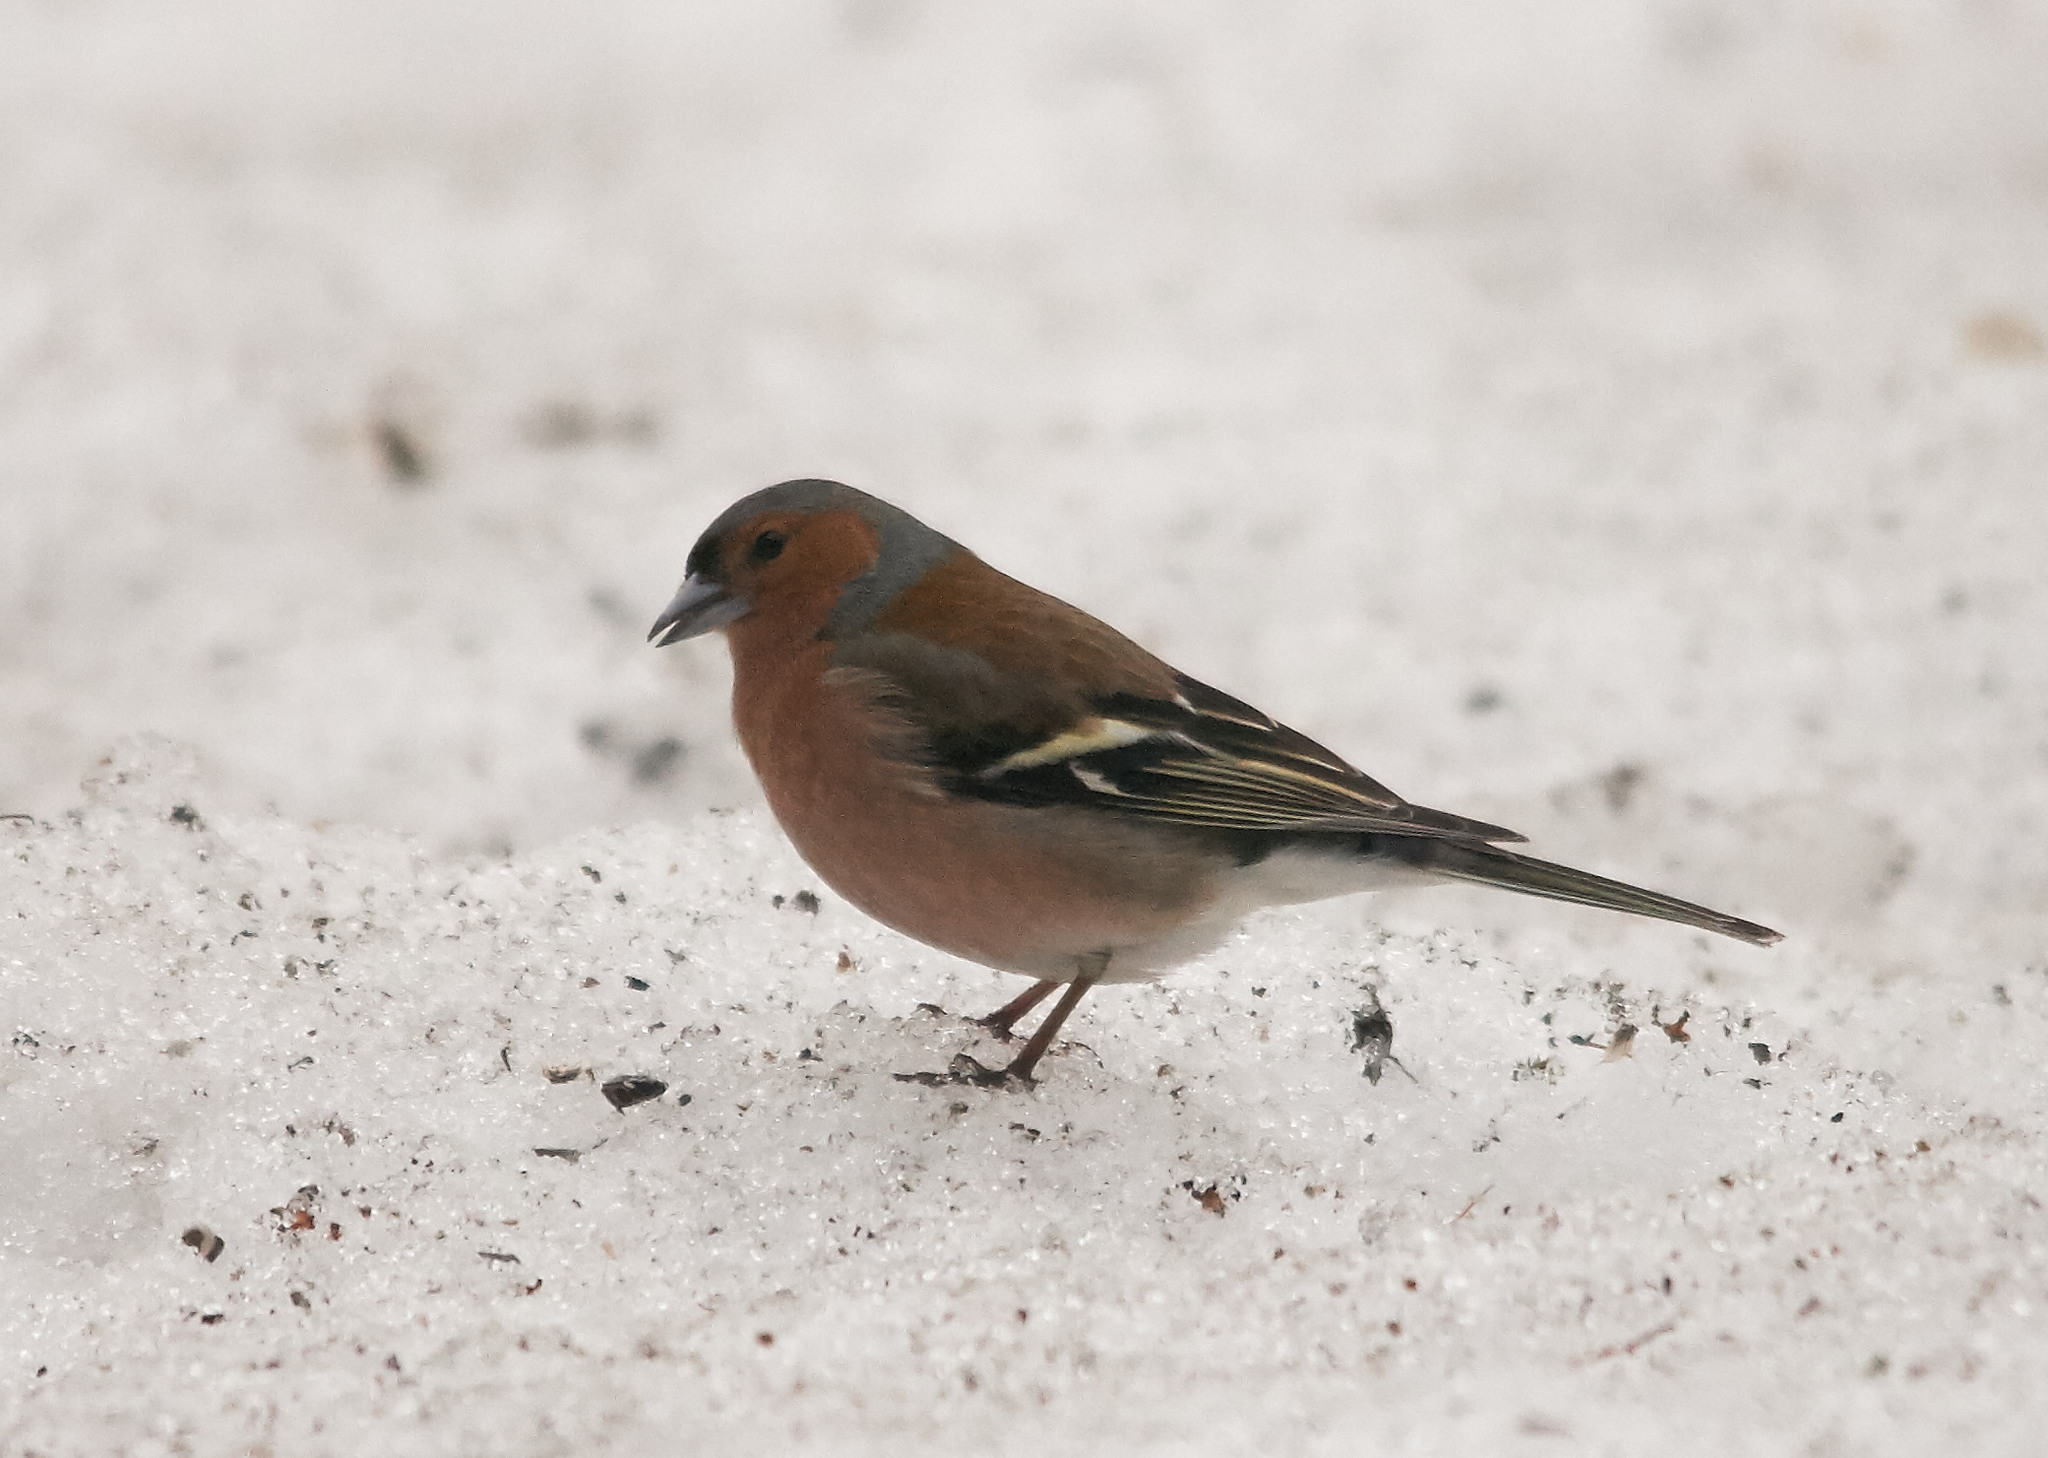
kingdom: Animalia
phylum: Chordata
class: Aves
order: Passeriformes
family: Fringillidae
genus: Fringilla
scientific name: Fringilla coelebs
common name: Common chaffinch
